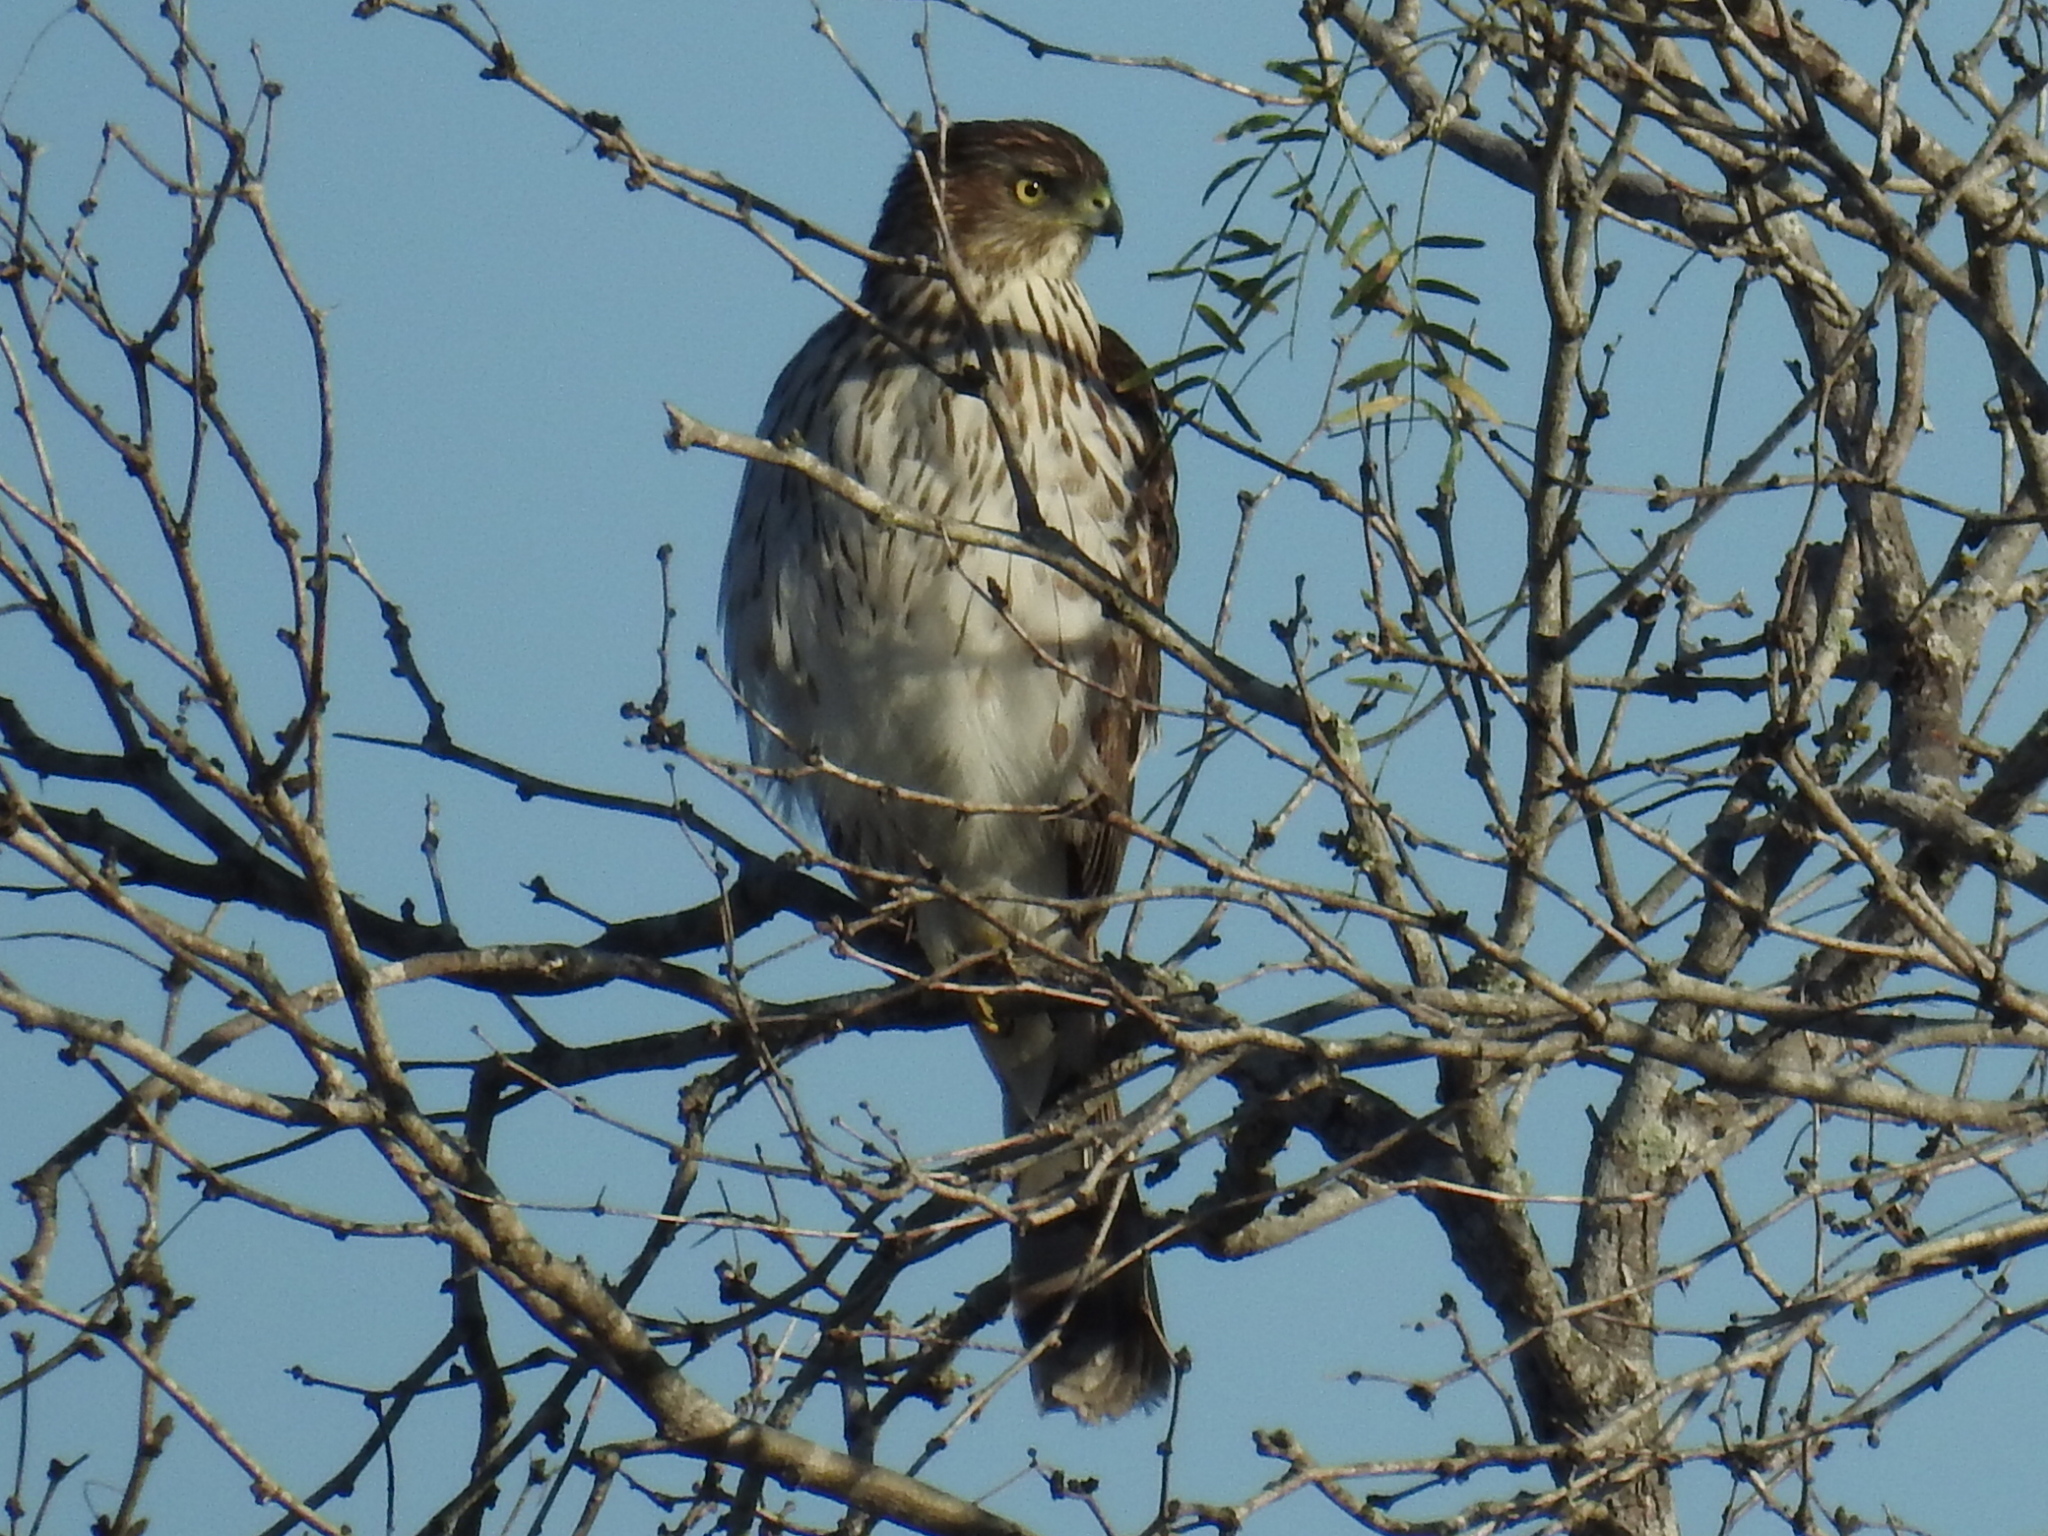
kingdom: Animalia
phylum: Chordata
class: Aves
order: Accipitriformes
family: Accipitridae
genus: Accipiter
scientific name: Accipiter cooperii
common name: Cooper's hawk
